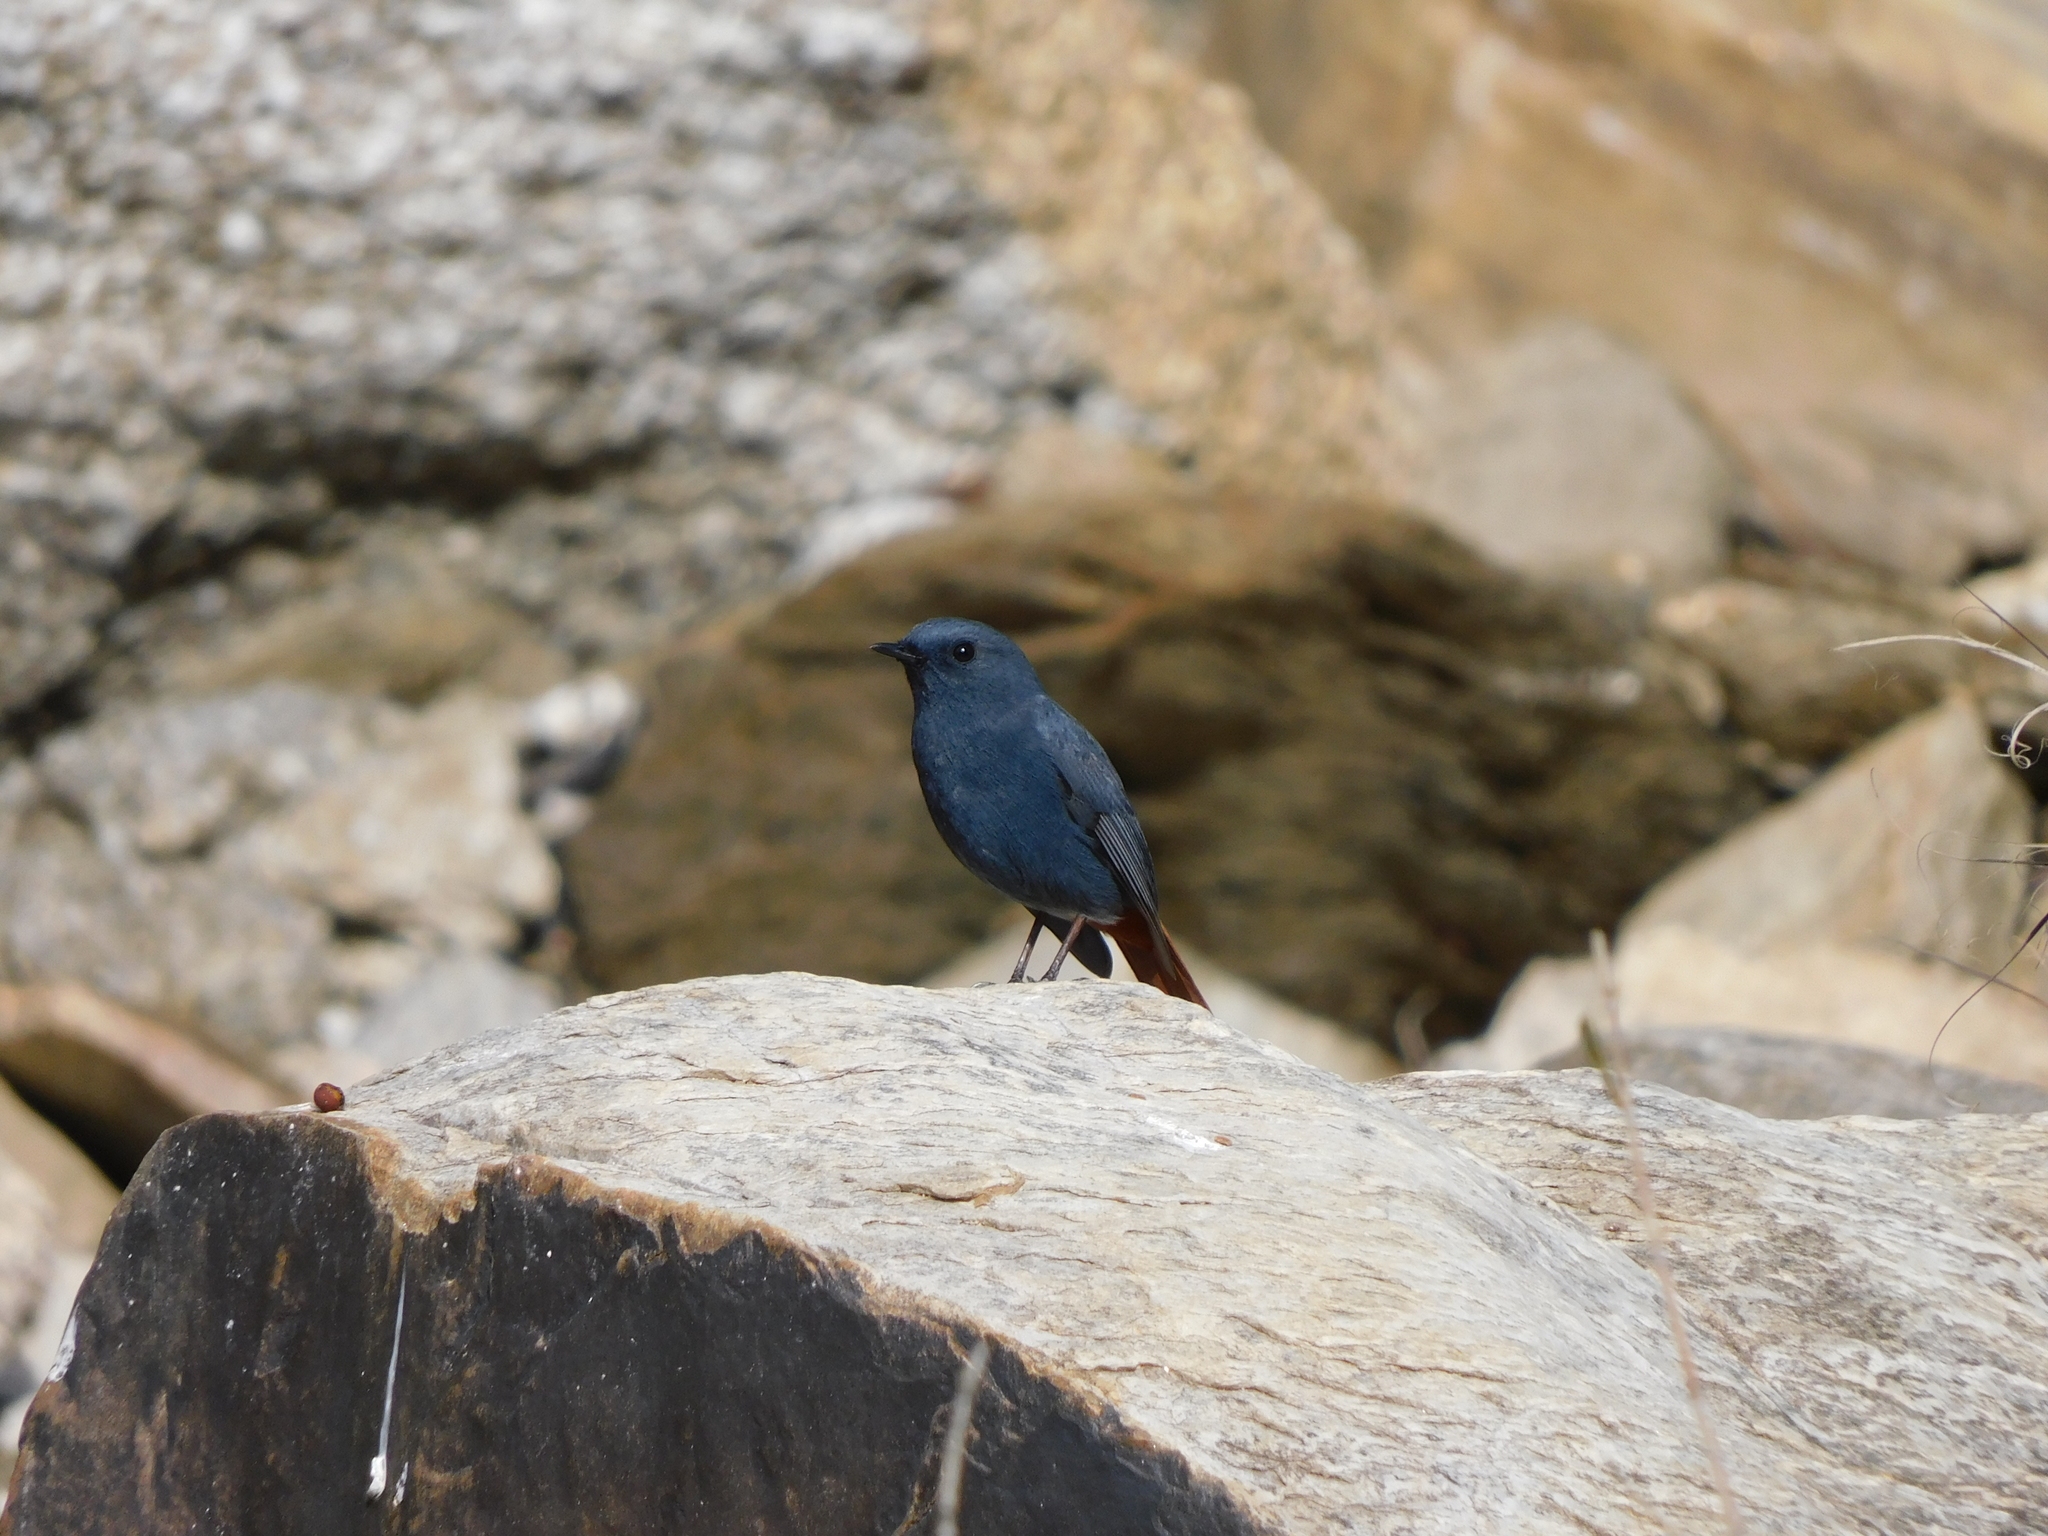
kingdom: Animalia
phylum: Chordata
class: Aves
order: Passeriformes
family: Muscicapidae
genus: Phoenicurus
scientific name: Phoenicurus fuliginosus
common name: Plumbeous water redstart
